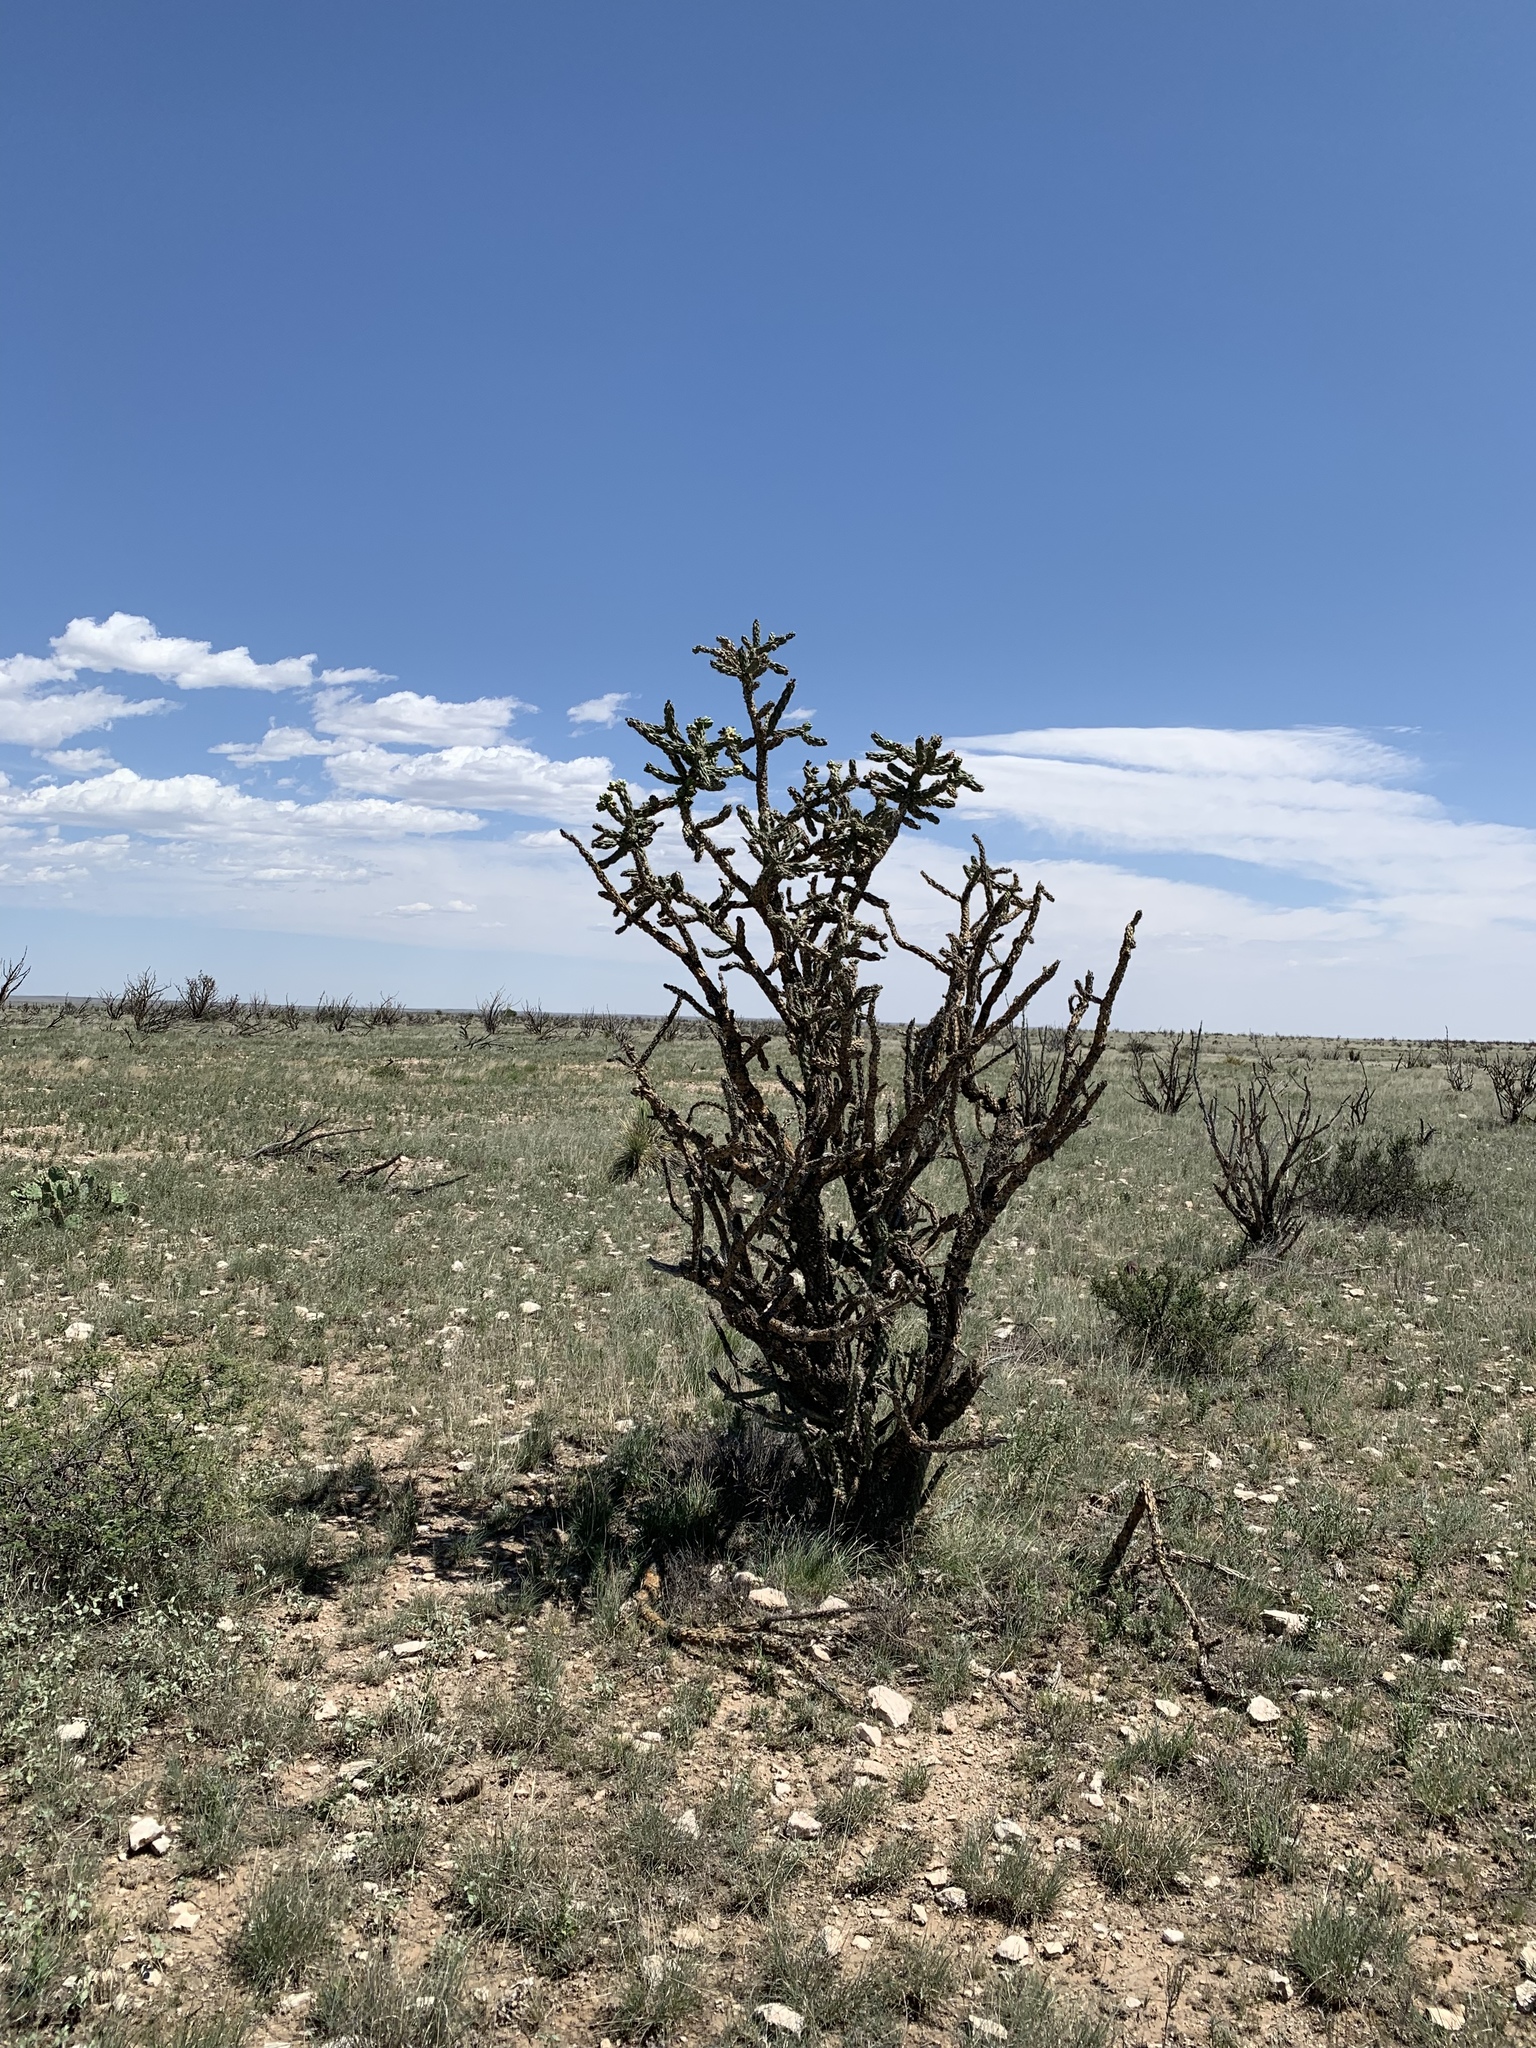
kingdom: Plantae
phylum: Tracheophyta
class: Magnoliopsida
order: Caryophyllales
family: Cactaceae
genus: Cylindropuntia
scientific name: Cylindropuntia imbricata
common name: Candelabrum cactus
